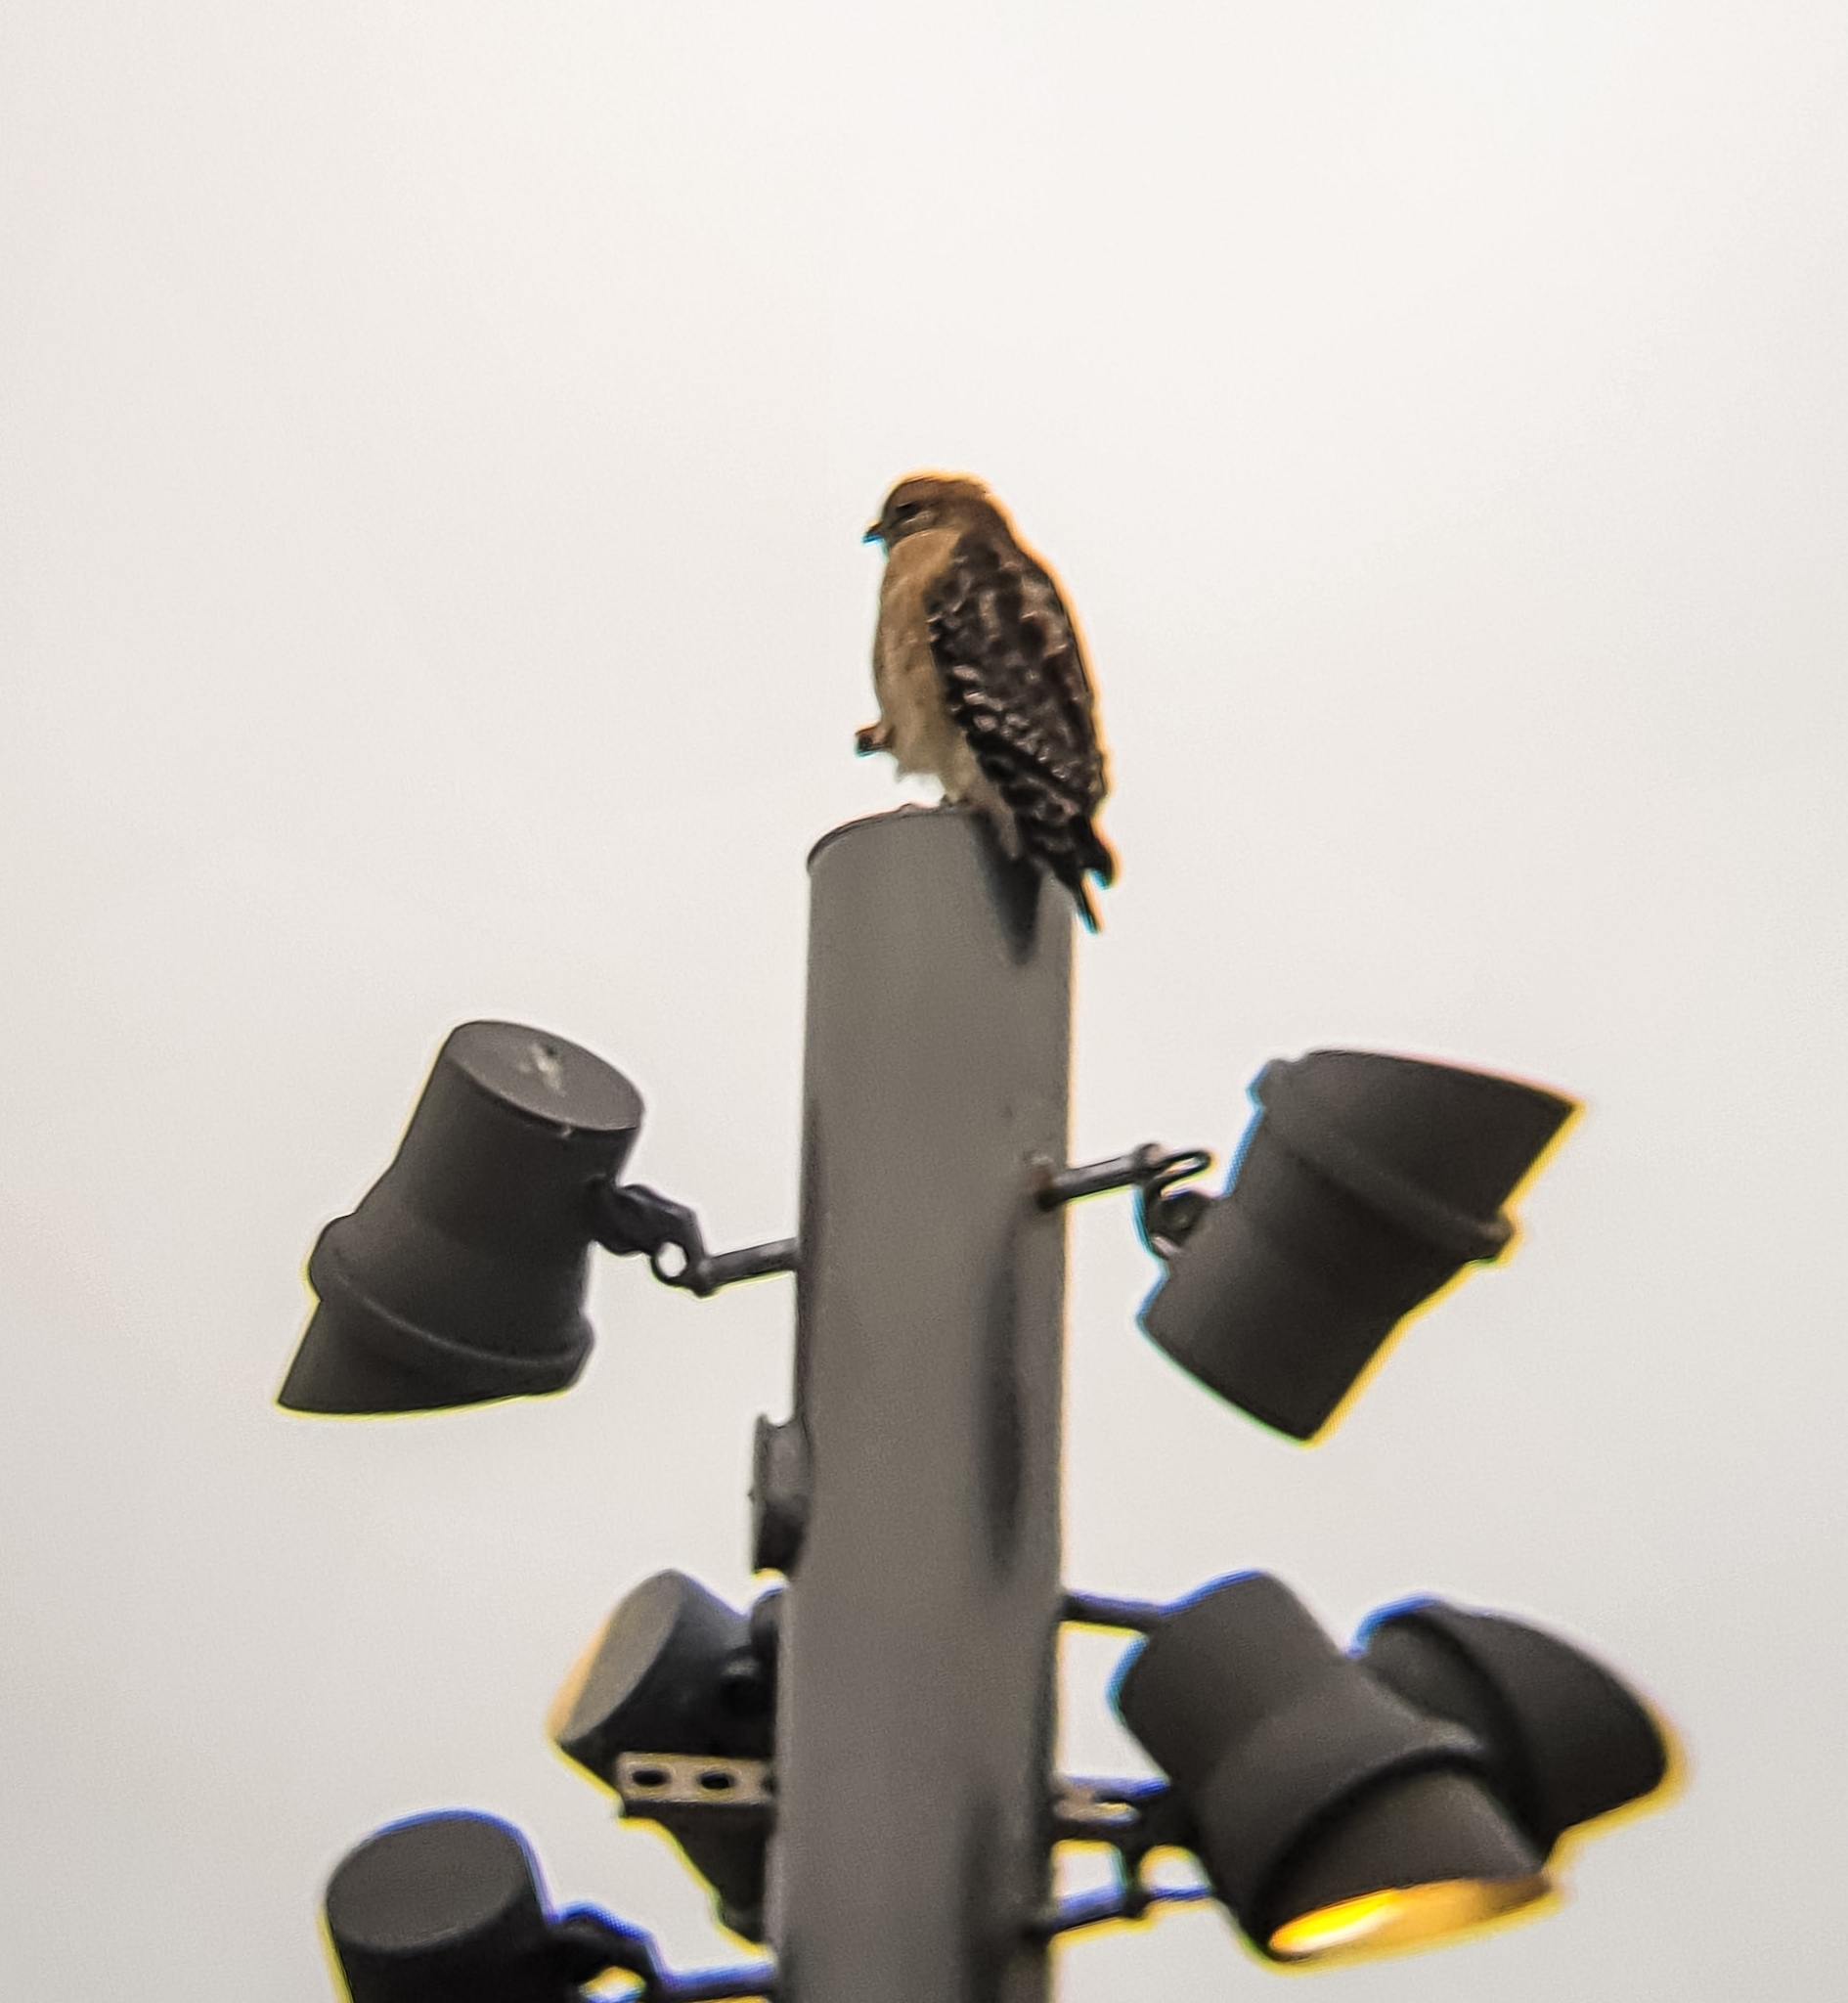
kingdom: Animalia
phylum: Chordata
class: Aves
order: Accipitriformes
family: Accipitridae
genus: Buteo
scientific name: Buteo lineatus
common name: Red-shouldered hawk
